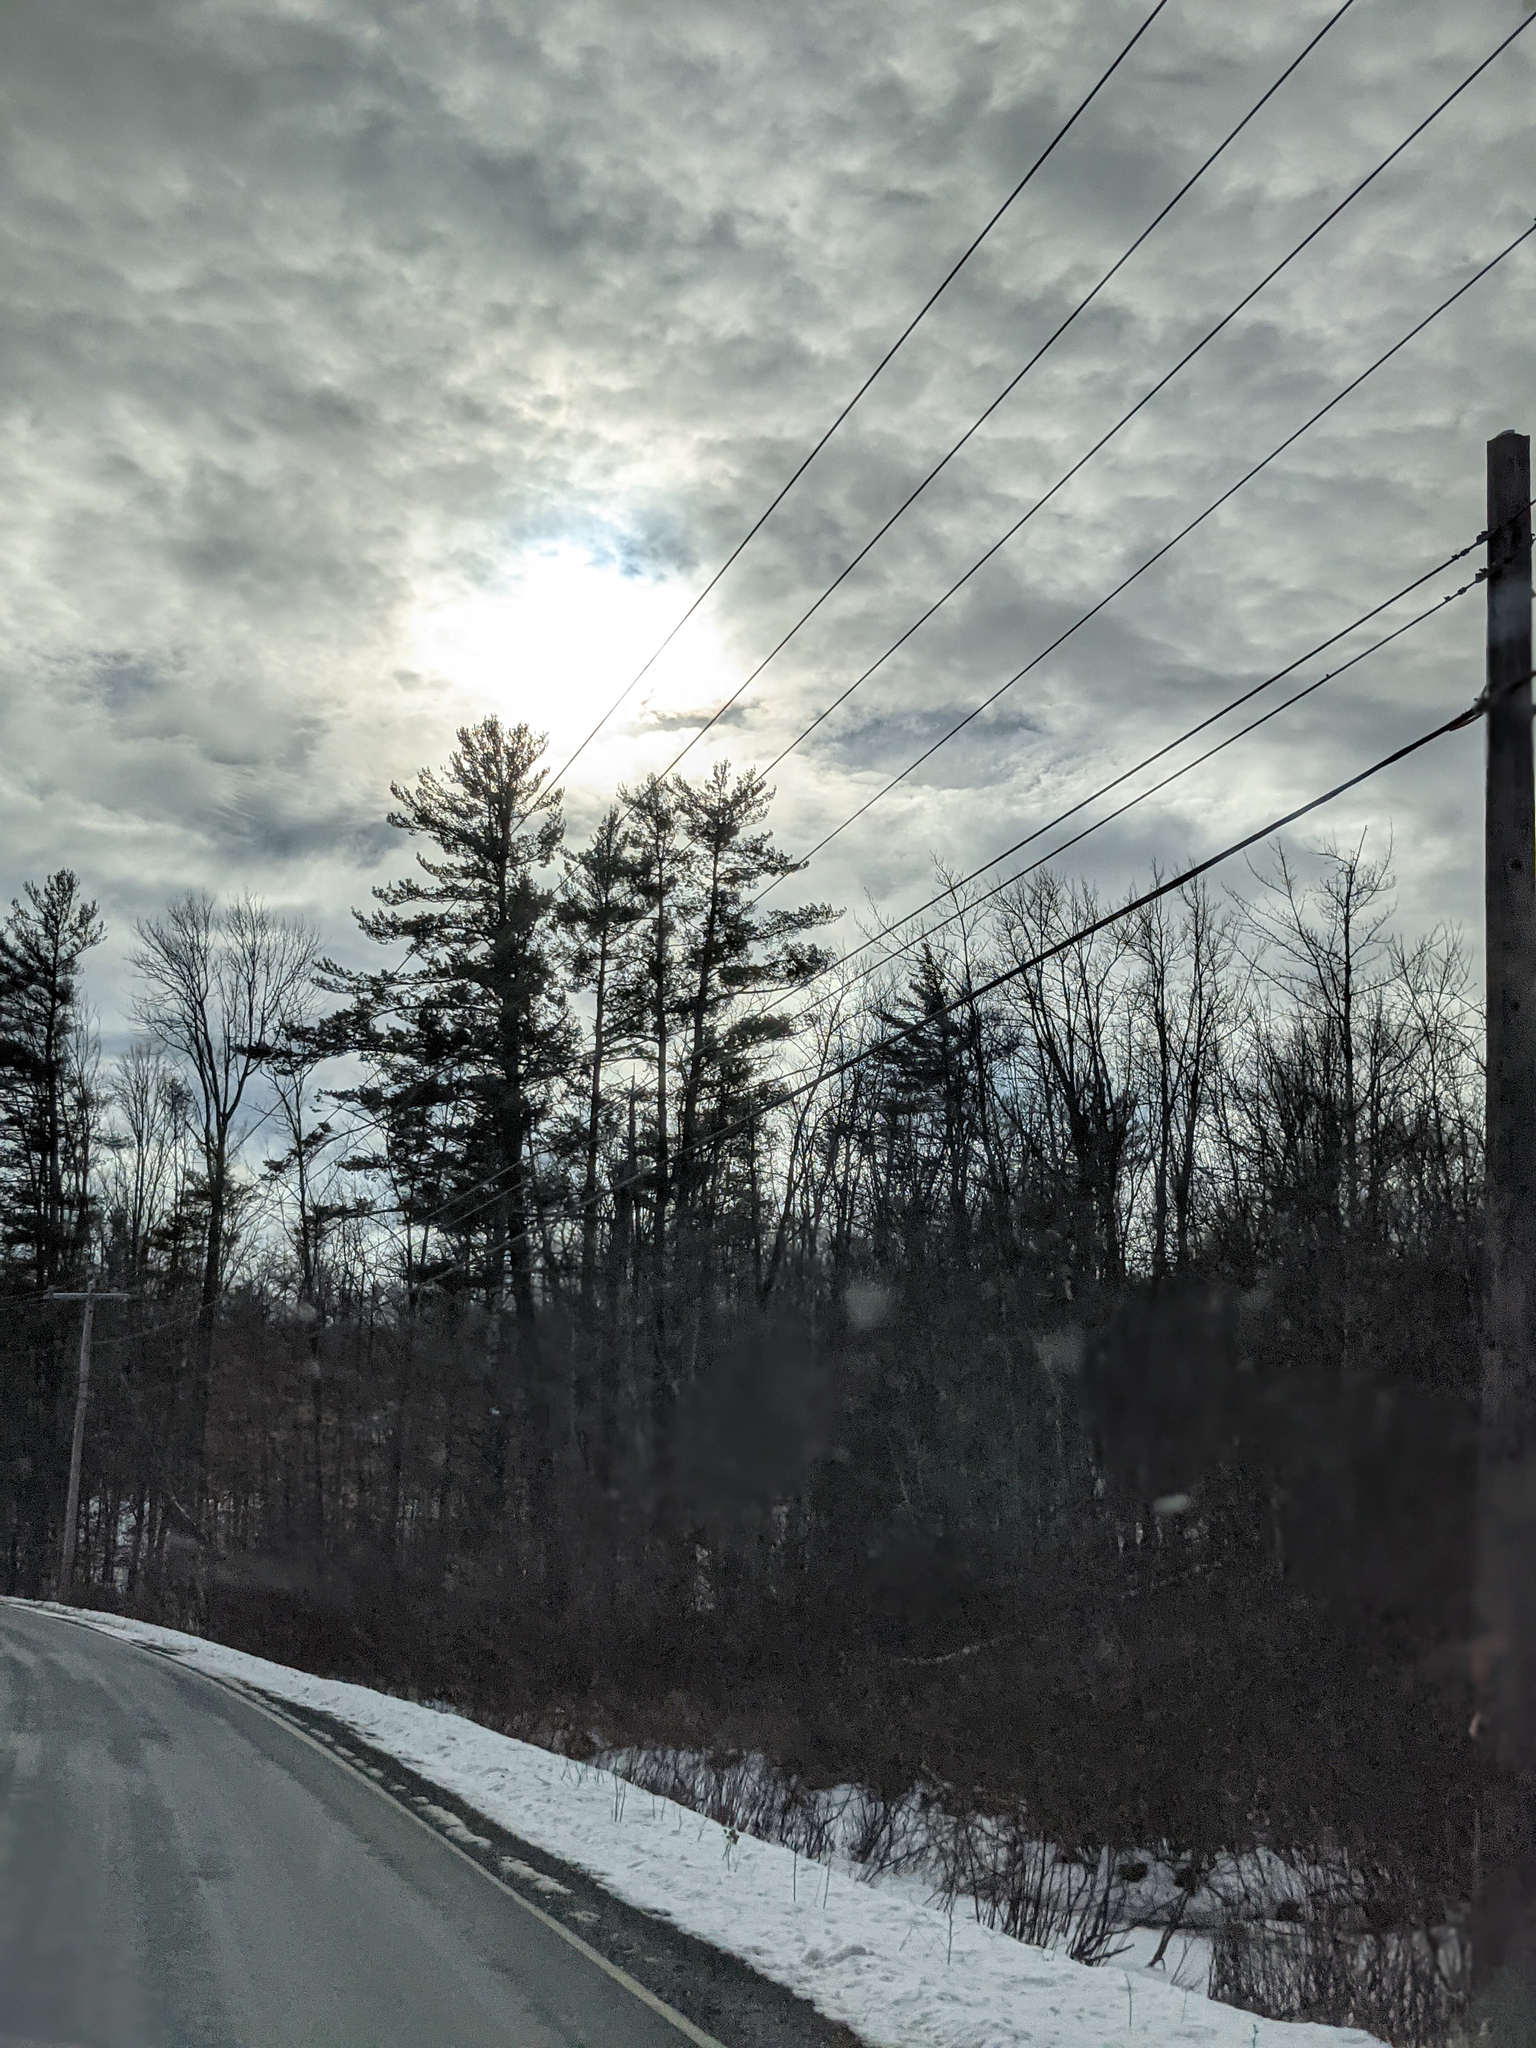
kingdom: Plantae
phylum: Tracheophyta
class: Pinopsida
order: Pinales
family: Pinaceae
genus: Pinus
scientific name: Pinus strobus
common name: Weymouth pine
